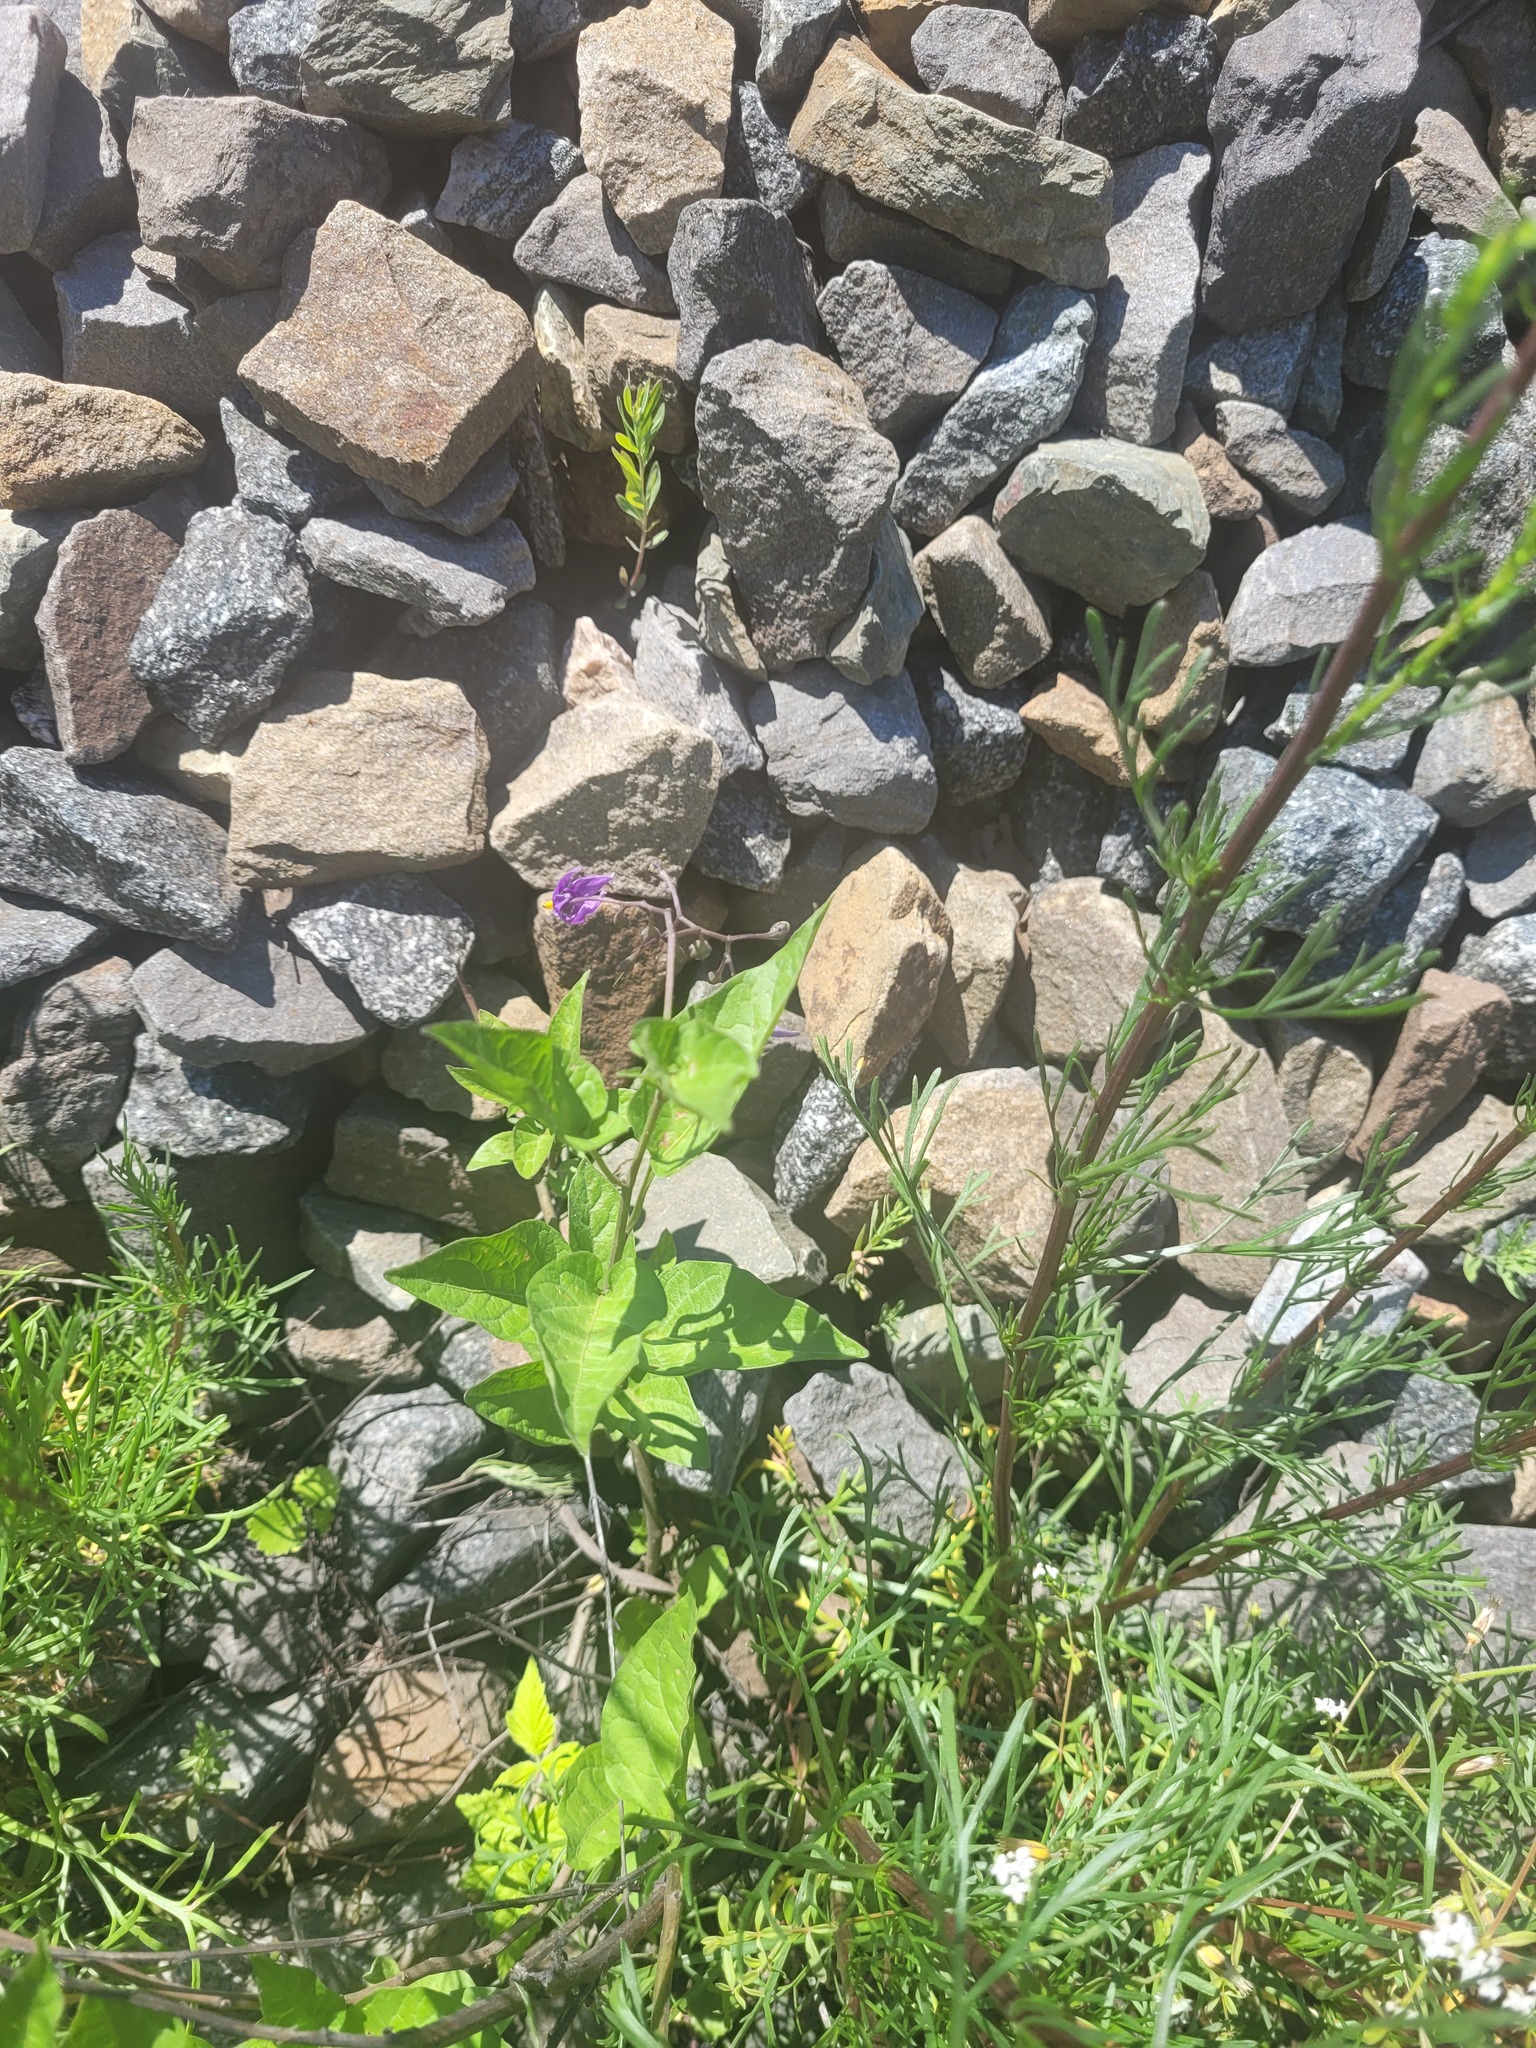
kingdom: Plantae
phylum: Tracheophyta
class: Magnoliopsida
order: Solanales
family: Solanaceae
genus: Solanum
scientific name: Solanum dulcamara
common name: Climbing nightshade
